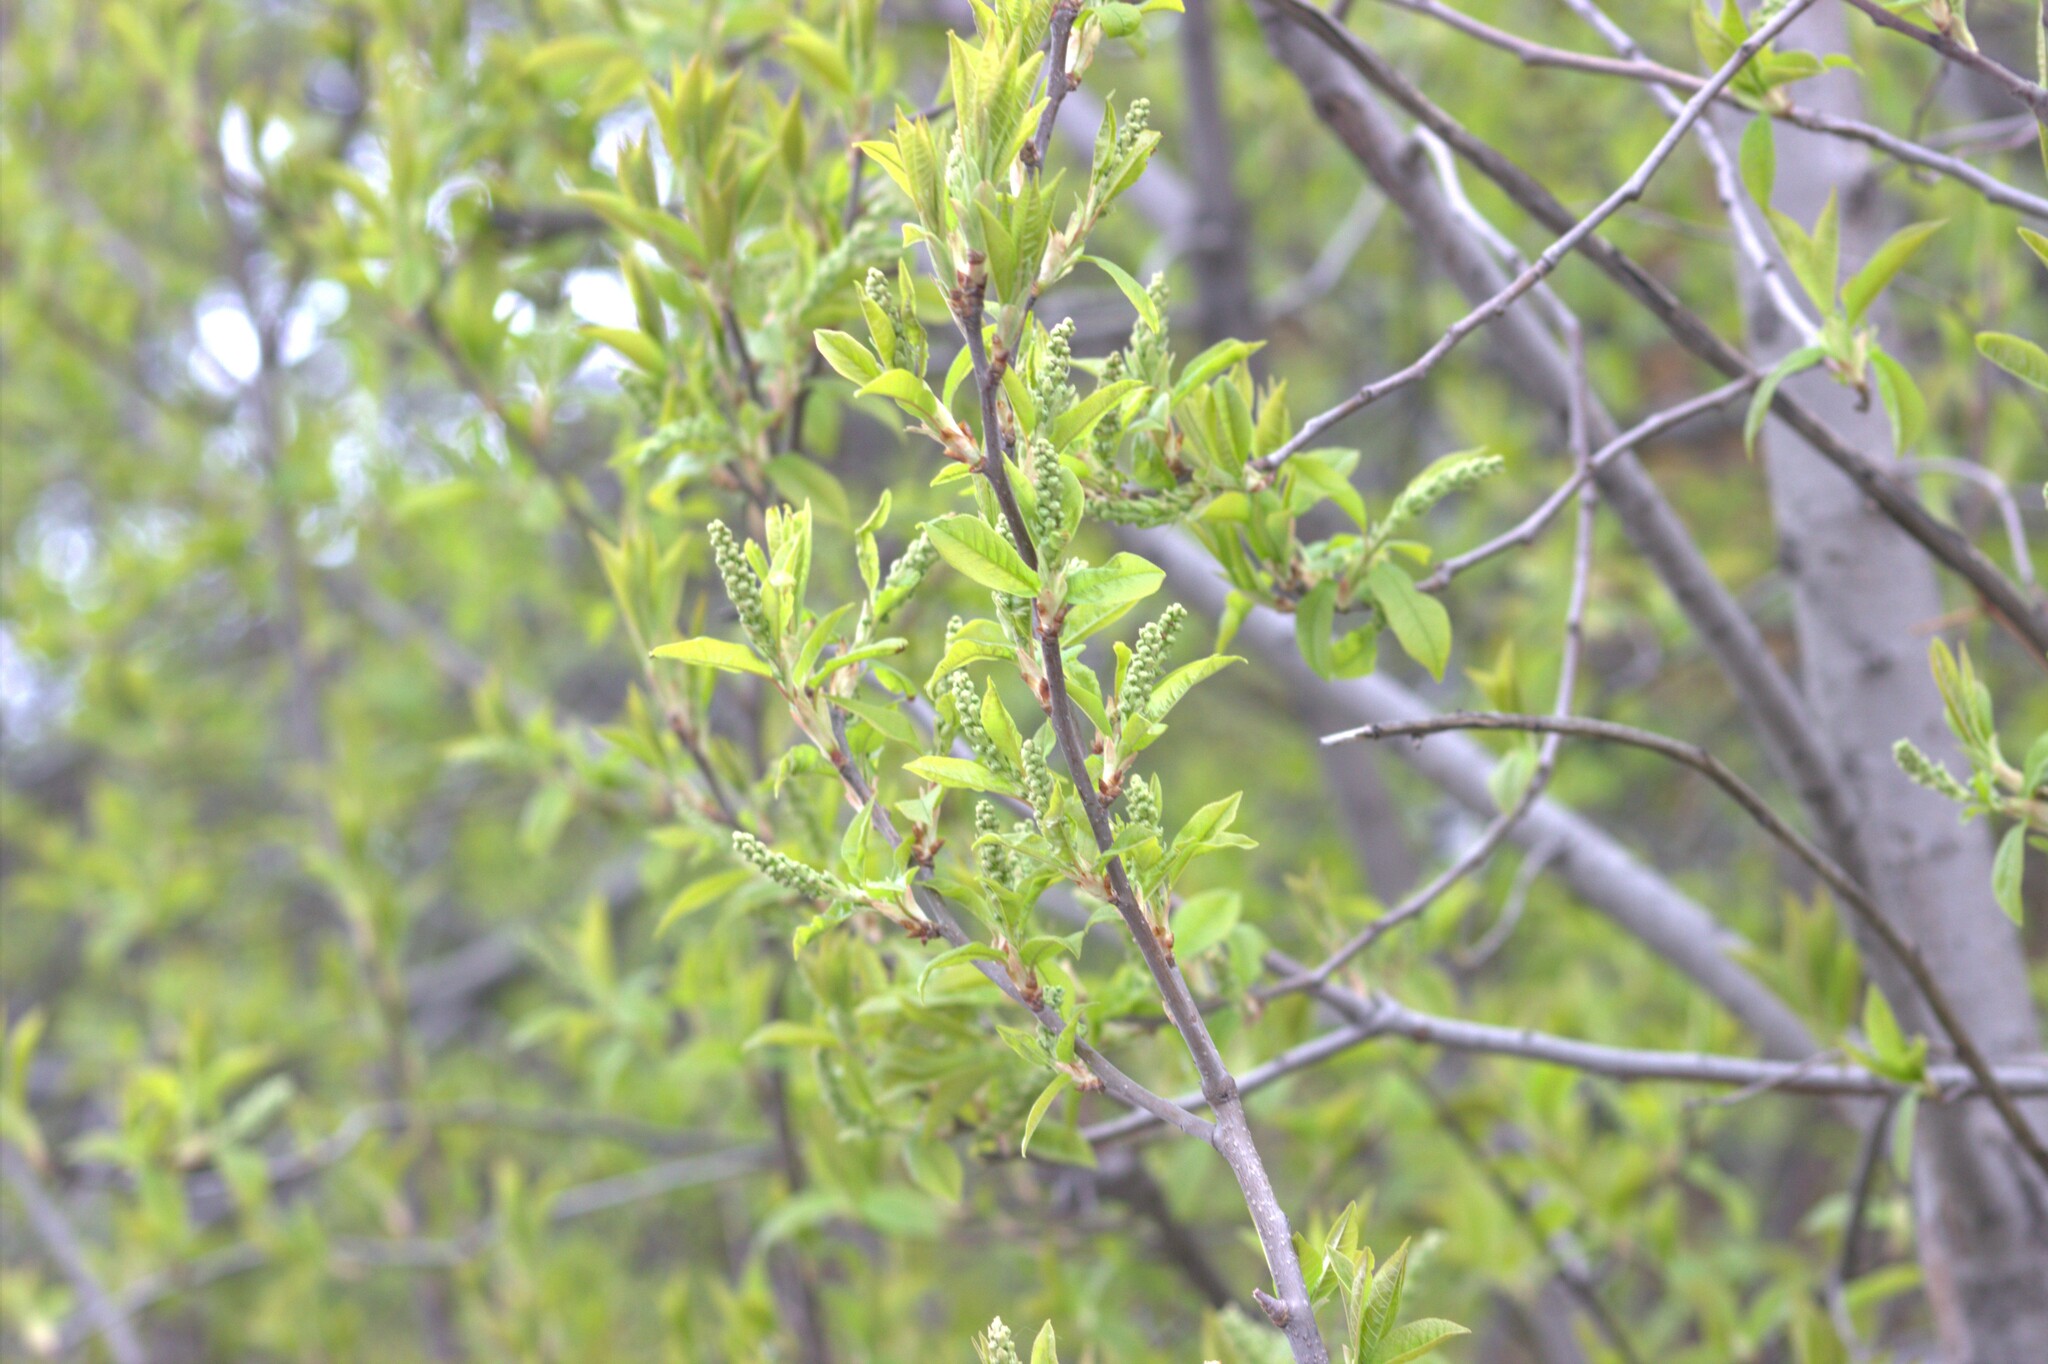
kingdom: Plantae
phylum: Tracheophyta
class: Magnoliopsida
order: Rosales
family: Rosaceae
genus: Prunus
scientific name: Prunus padus
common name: Bird cherry
